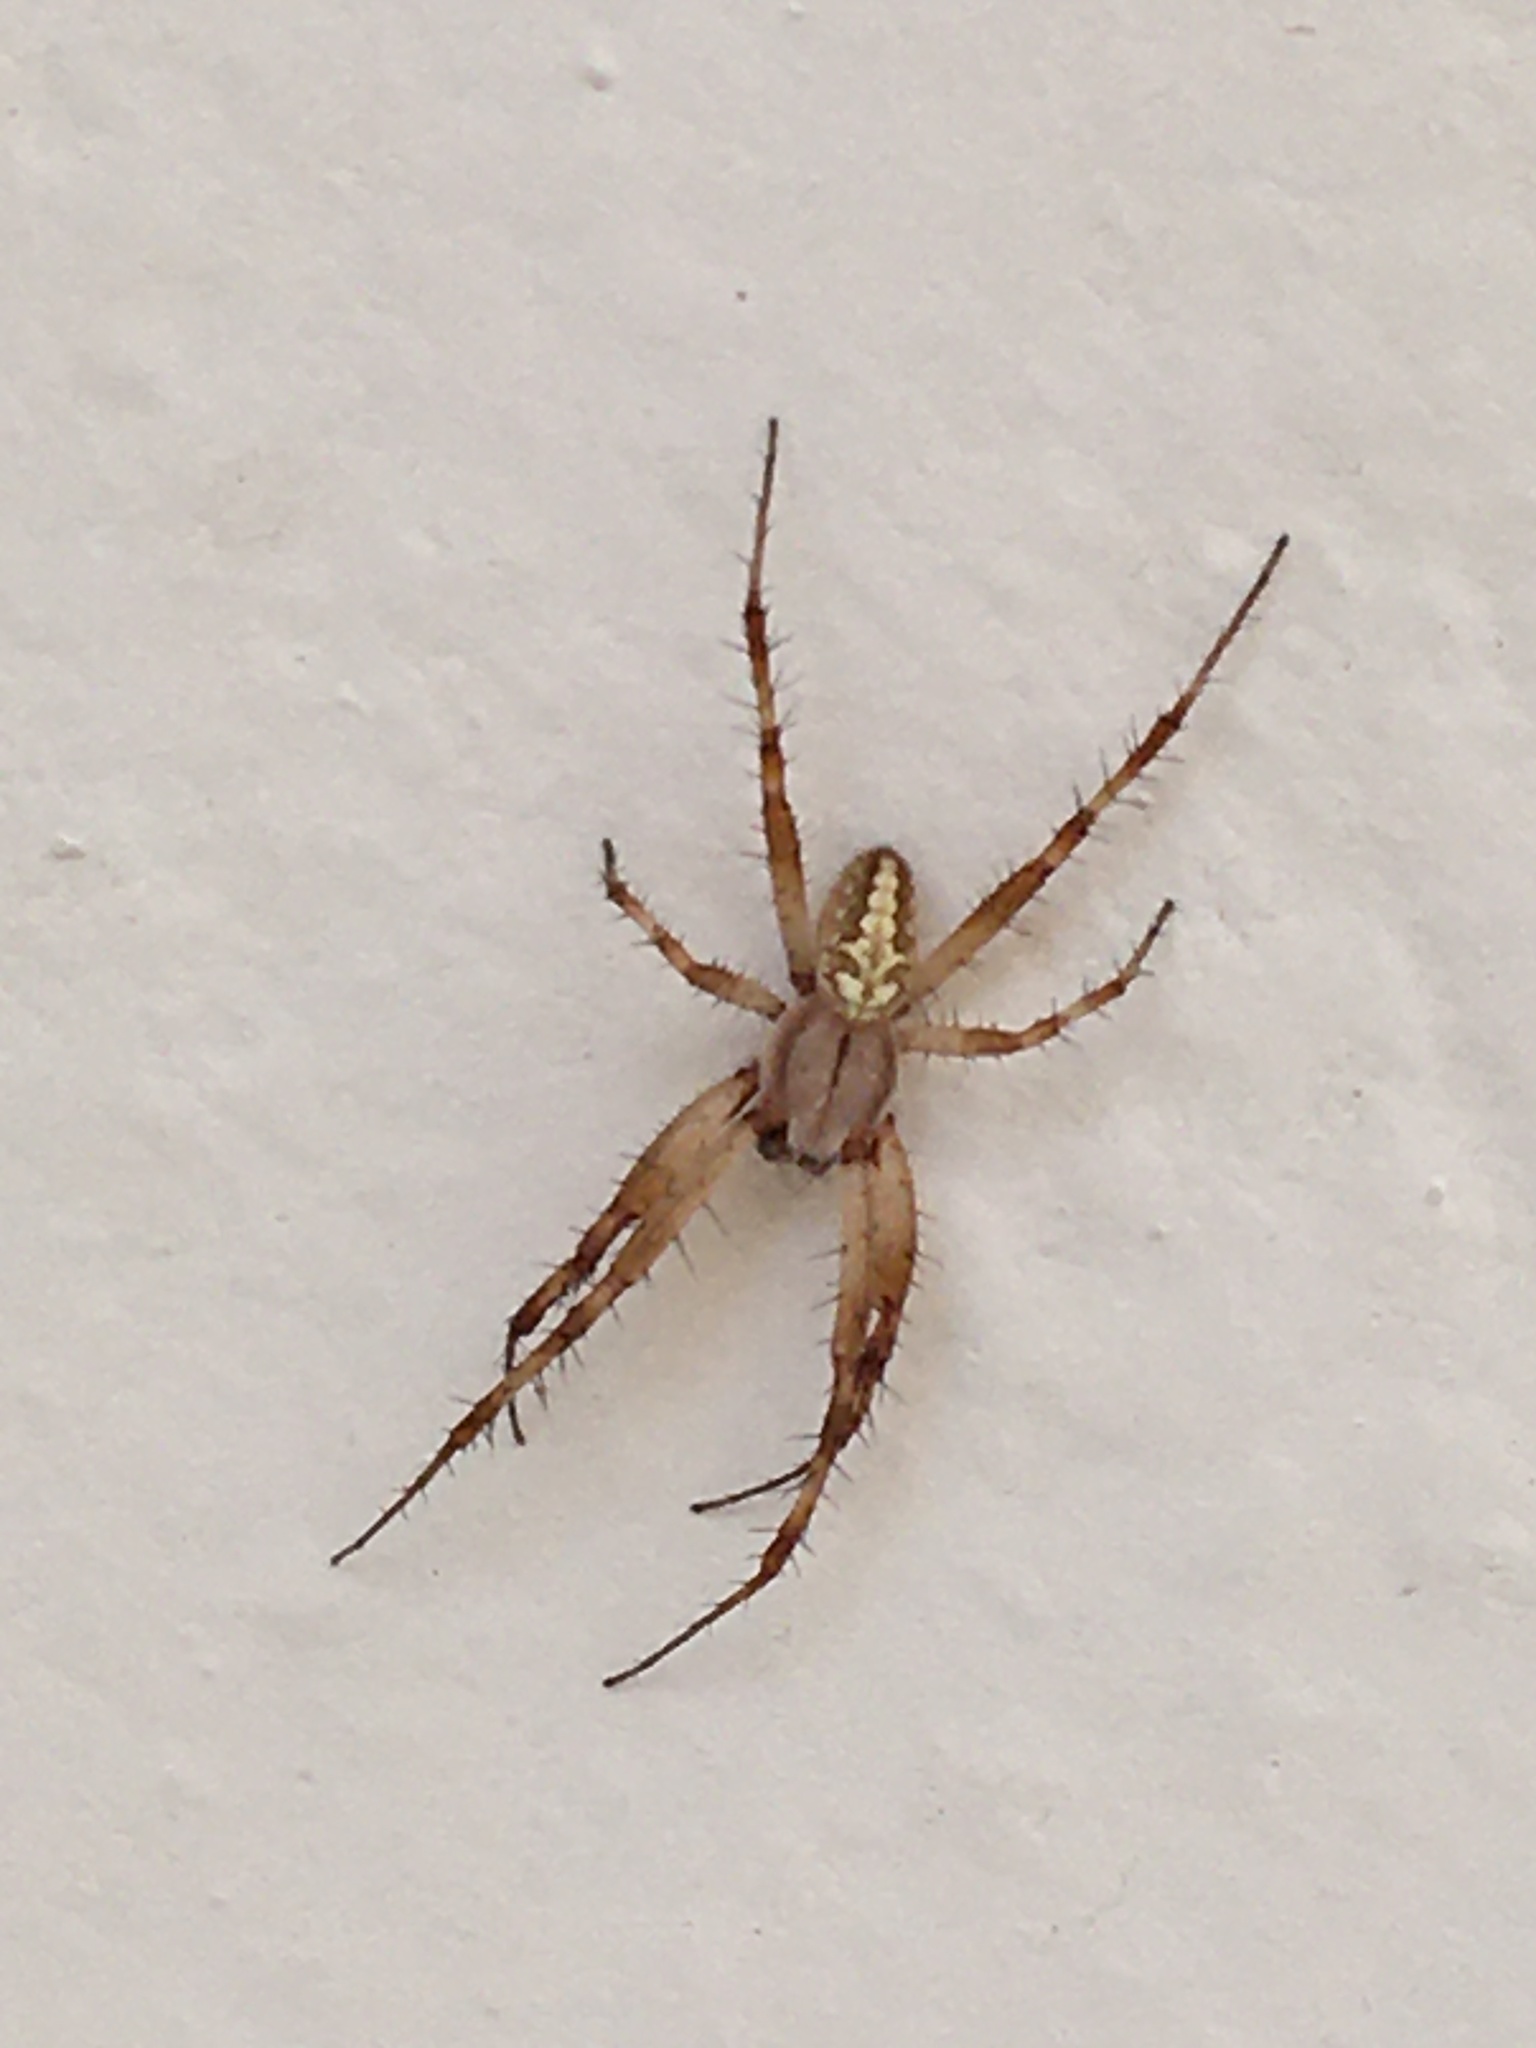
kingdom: Animalia
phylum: Arthropoda
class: Arachnida
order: Araneae
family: Araneidae
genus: Neoscona
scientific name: Neoscona oaxacensis
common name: Orb weavers
